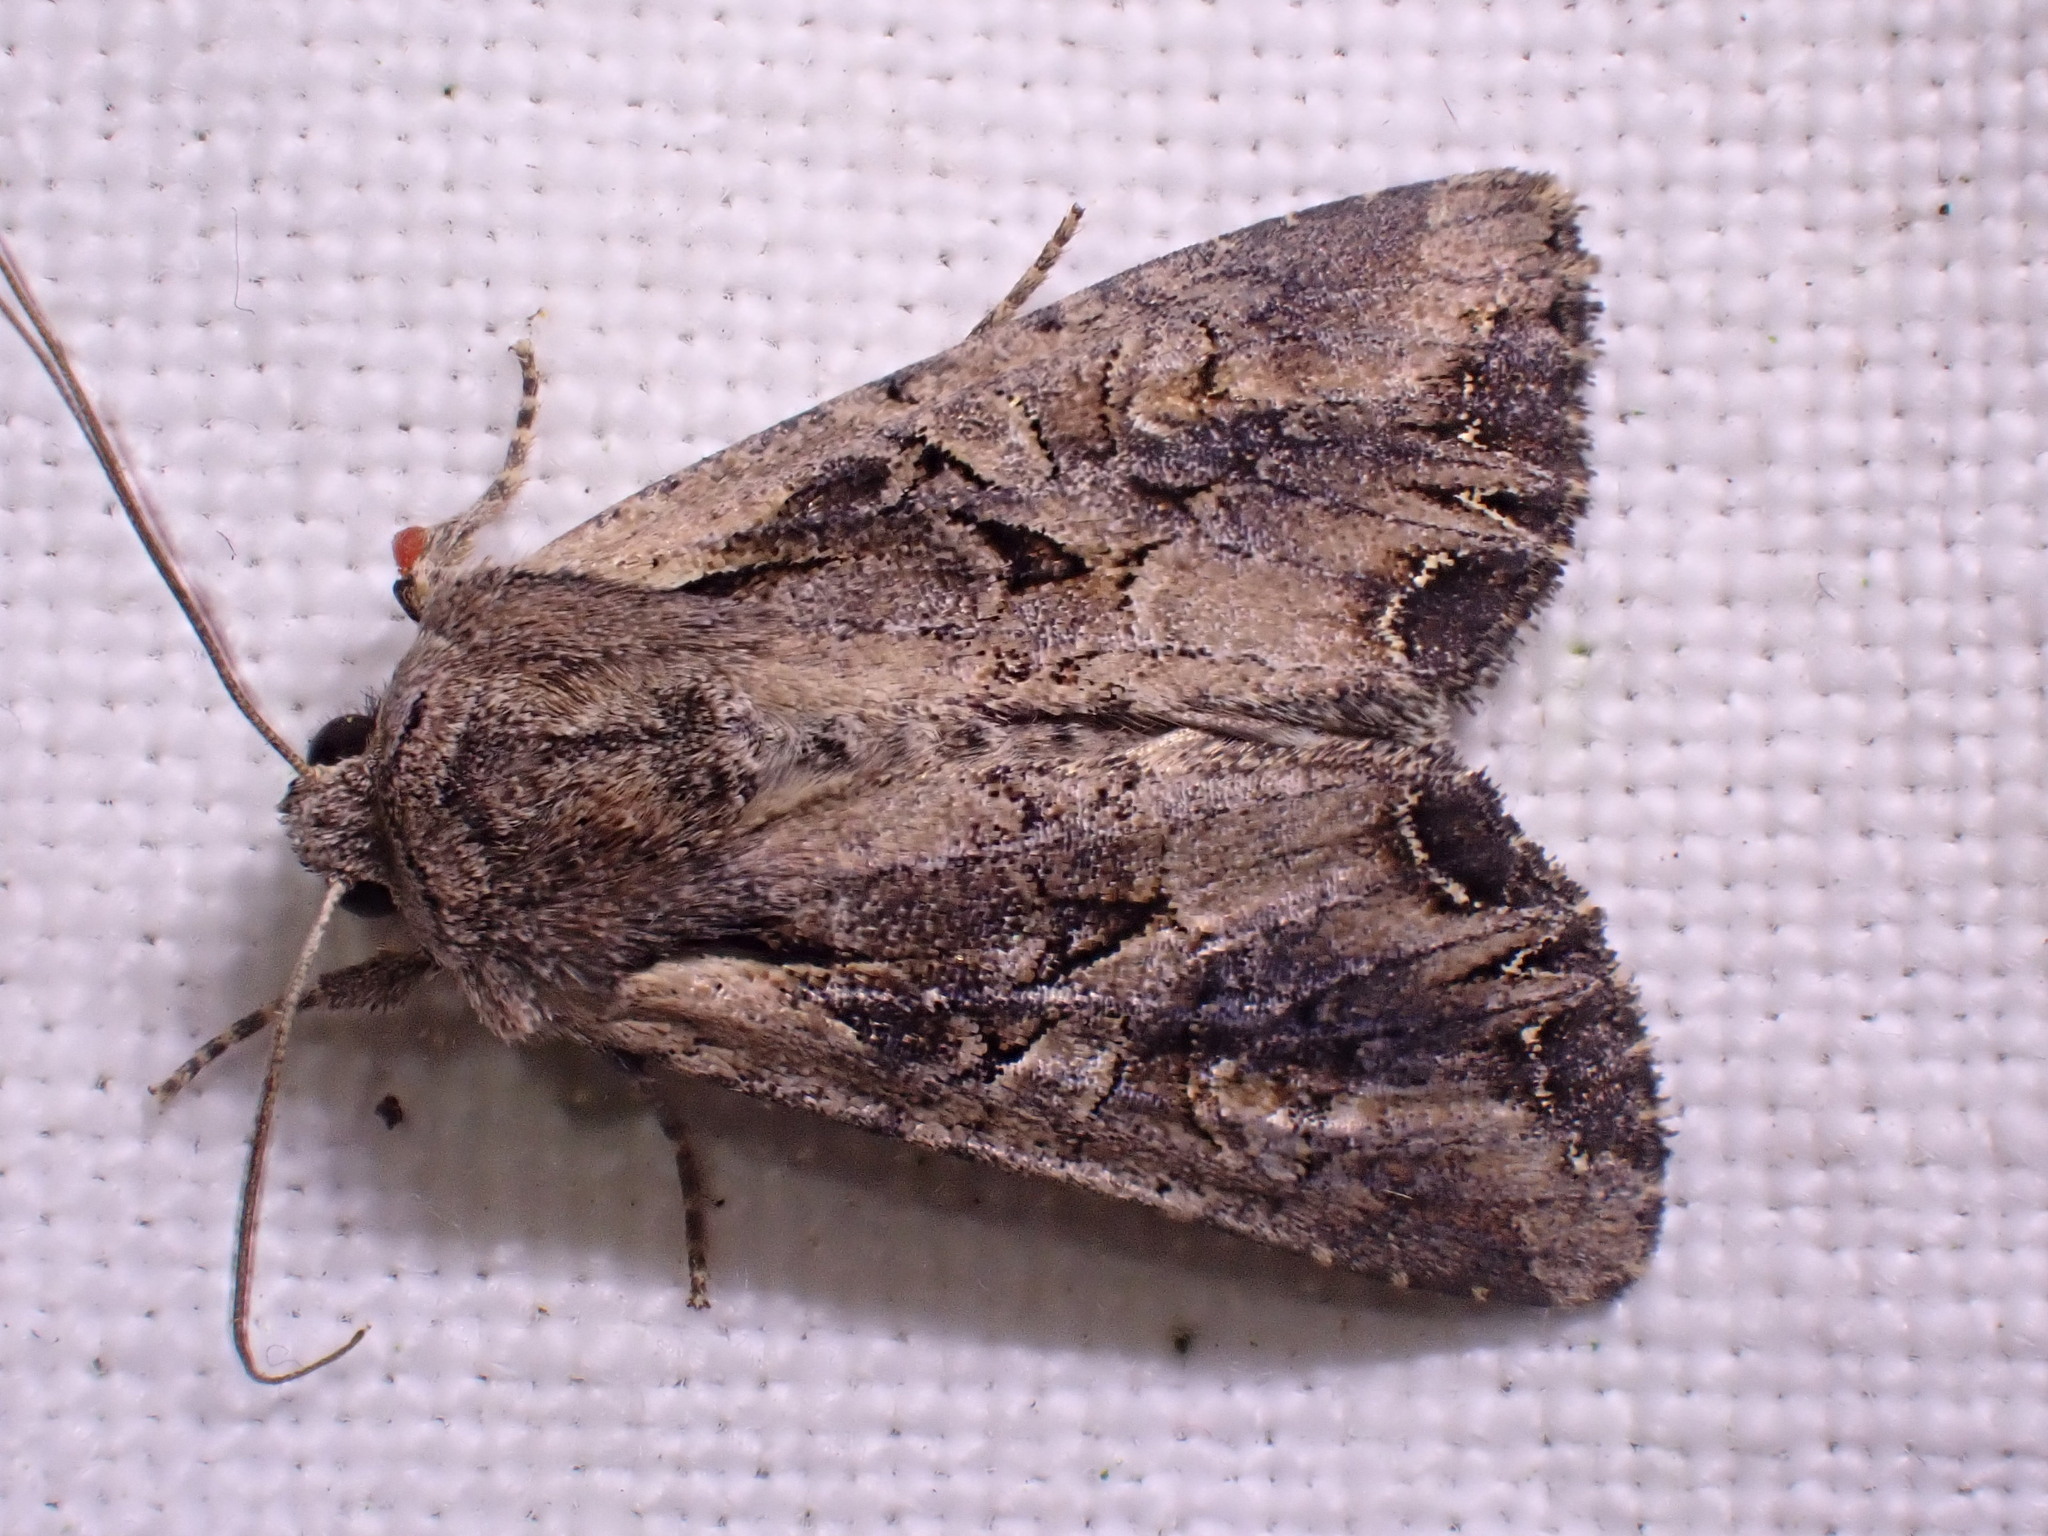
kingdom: Animalia
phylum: Arthropoda
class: Insecta
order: Lepidoptera
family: Noctuidae
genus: Lacanobia
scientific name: Lacanobia suasa
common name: Dog's tooth
